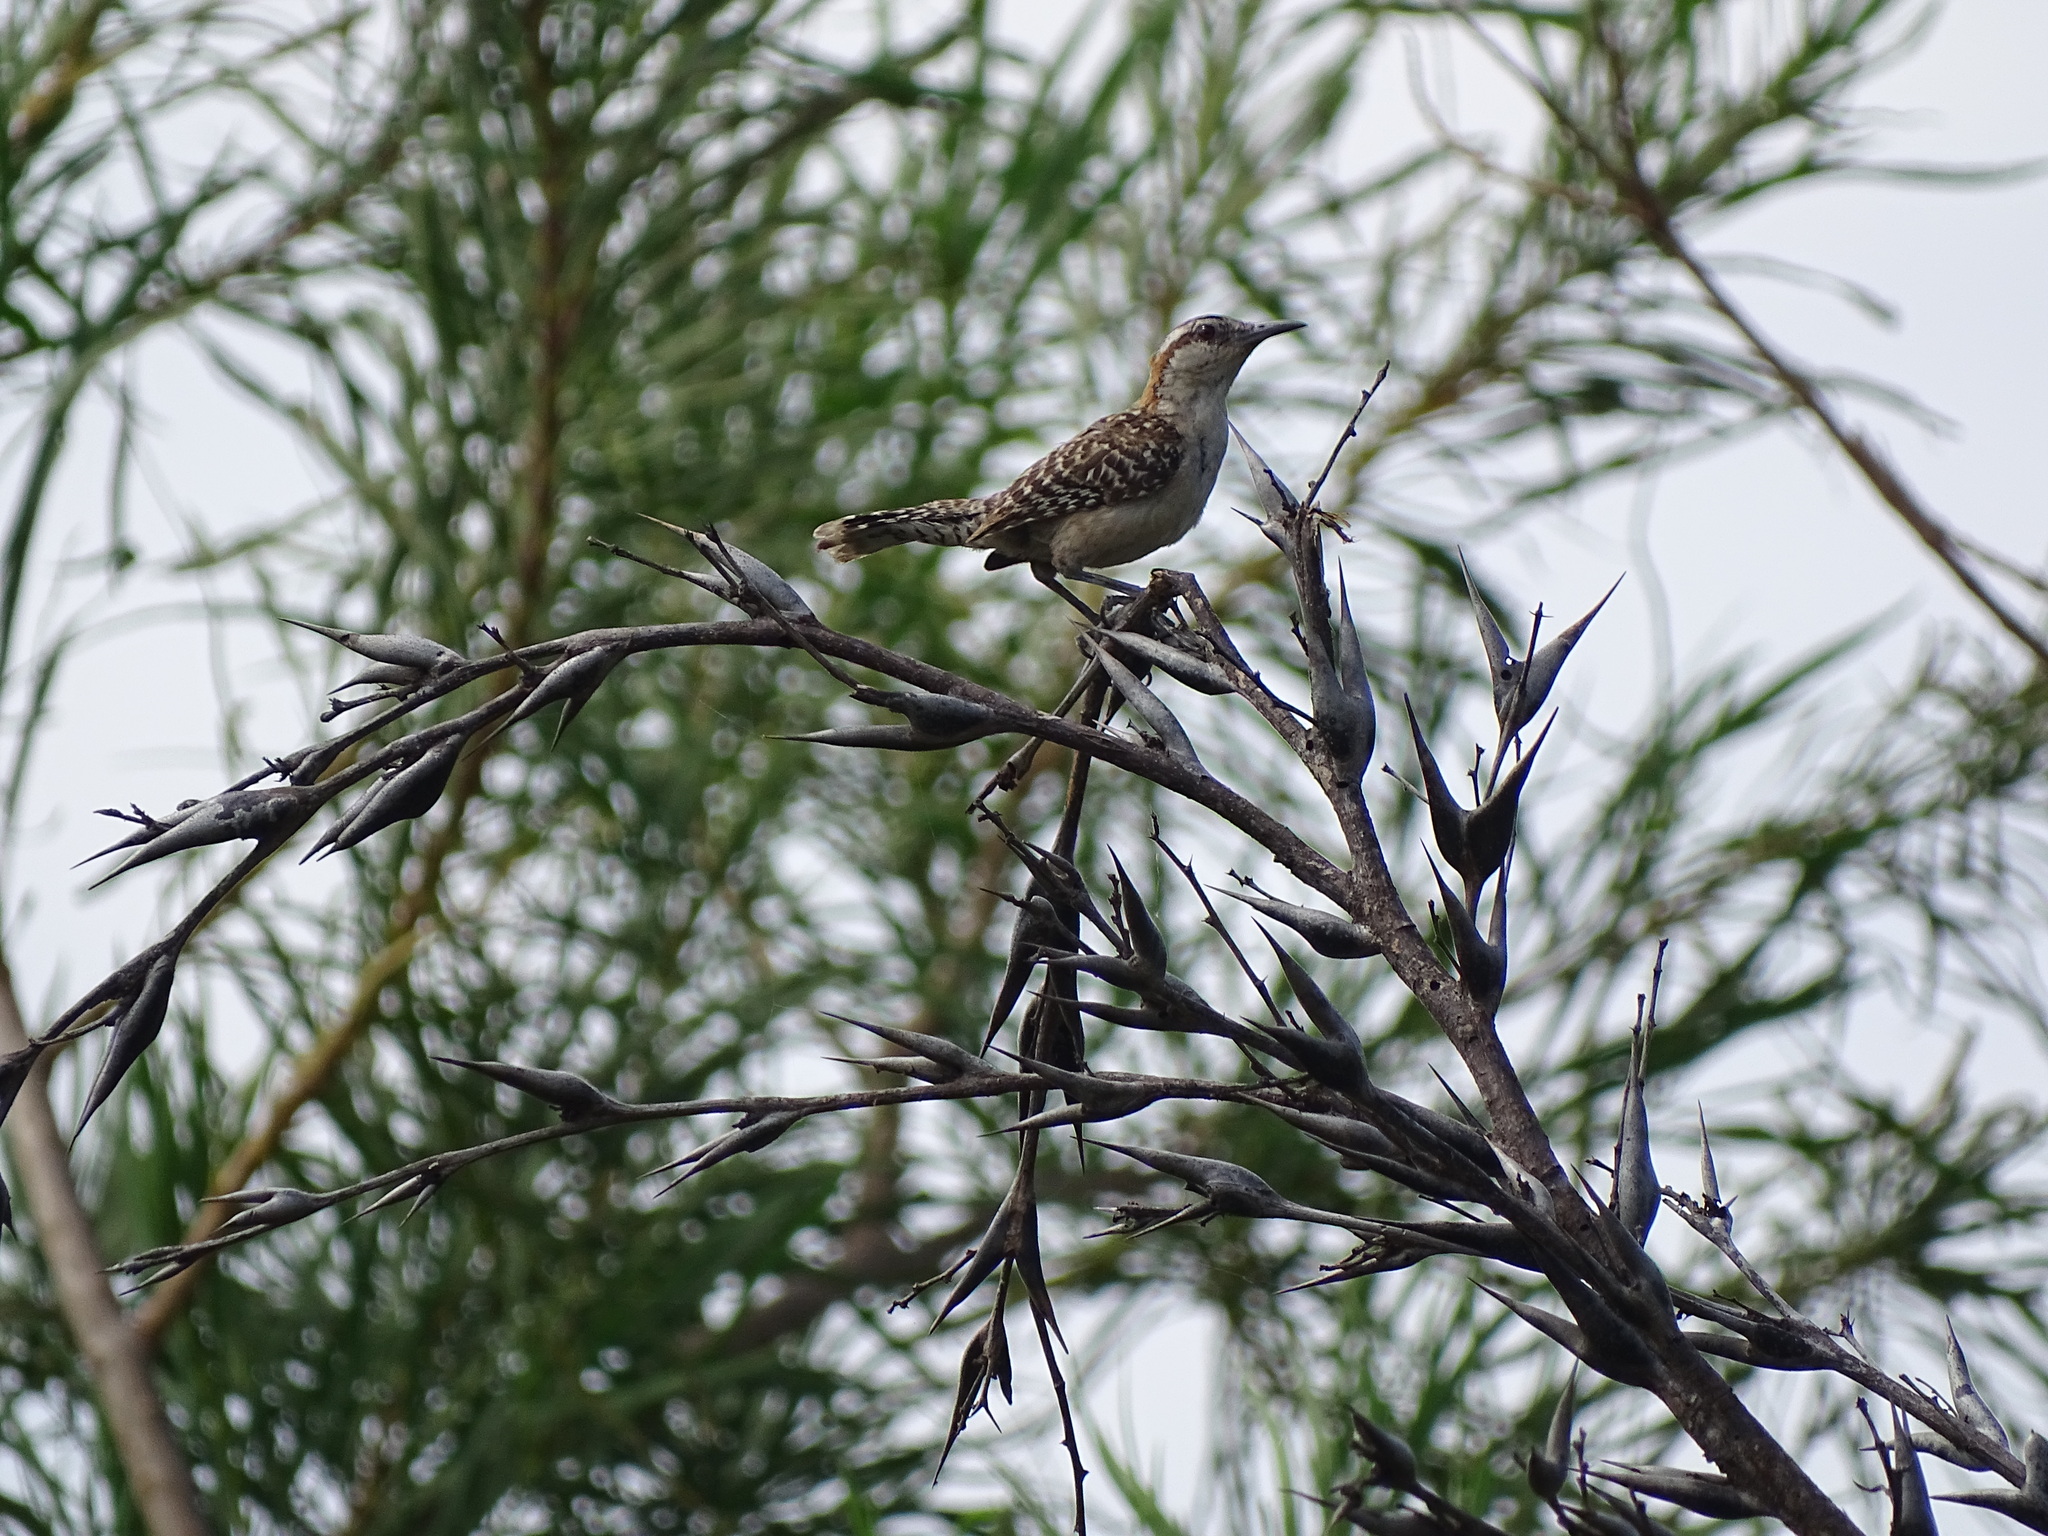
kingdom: Animalia
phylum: Chordata
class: Aves
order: Passeriformes
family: Troglodytidae
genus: Campylorhynchus
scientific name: Campylorhynchus rufinucha
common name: Rufous-naped wren
